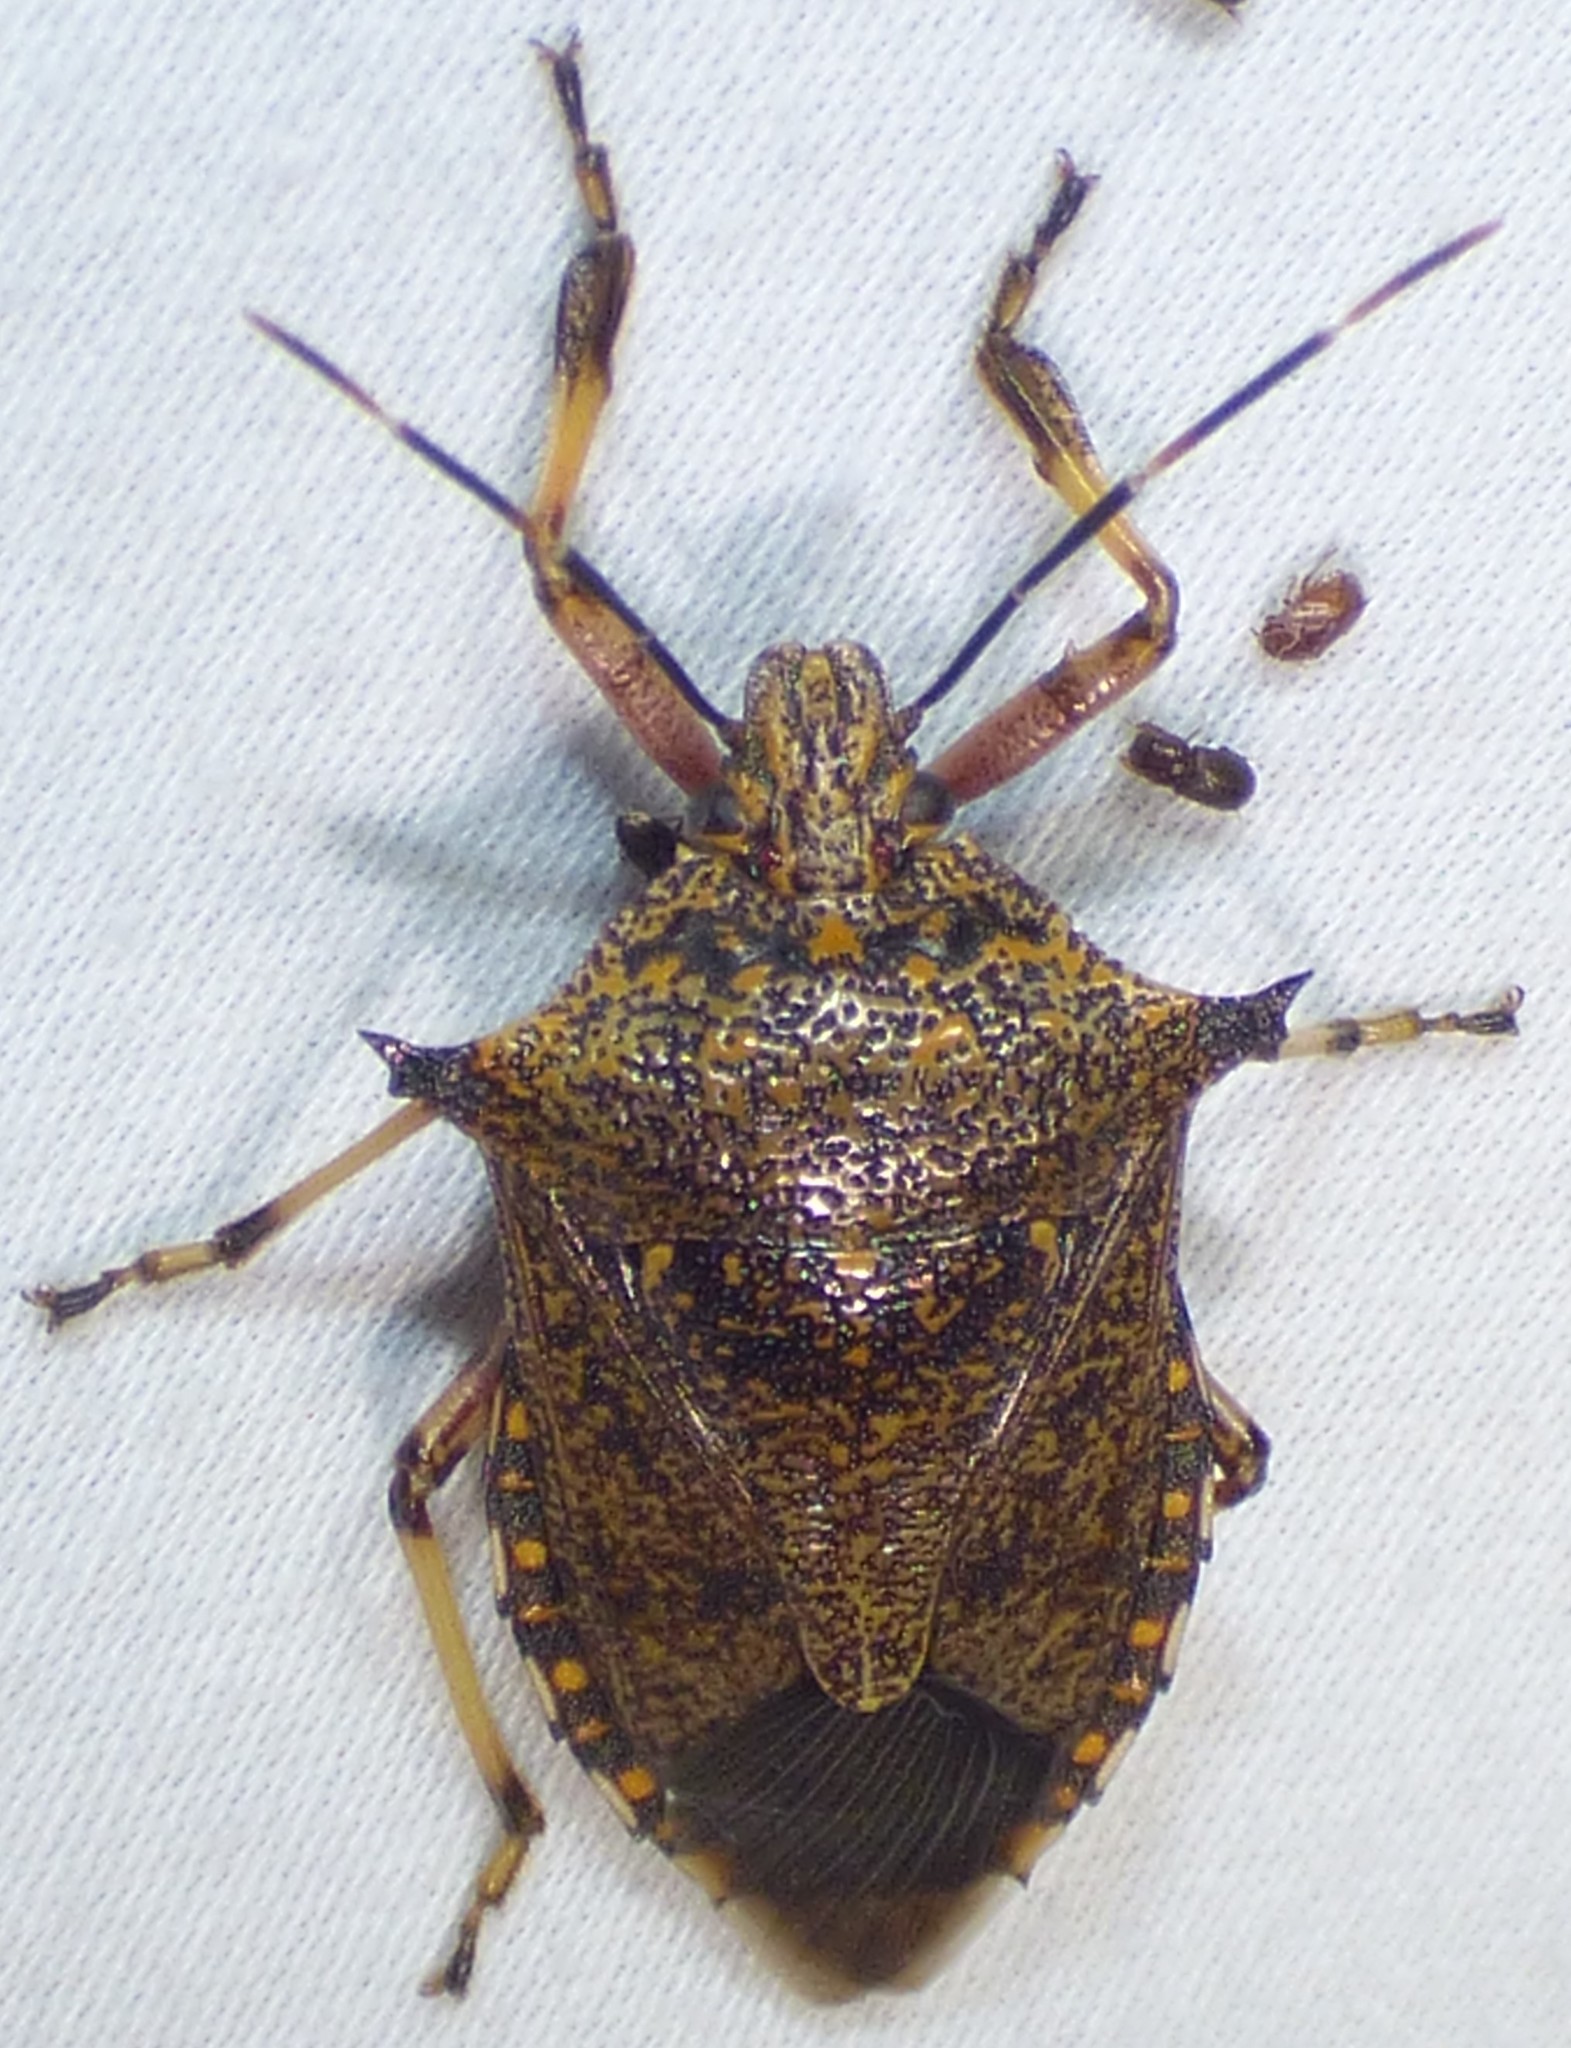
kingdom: Animalia
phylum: Arthropoda
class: Insecta
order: Hemiptera
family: Pentatomidae
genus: Alcaeorrhynchus
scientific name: Alcaeorrhynchus grandis
